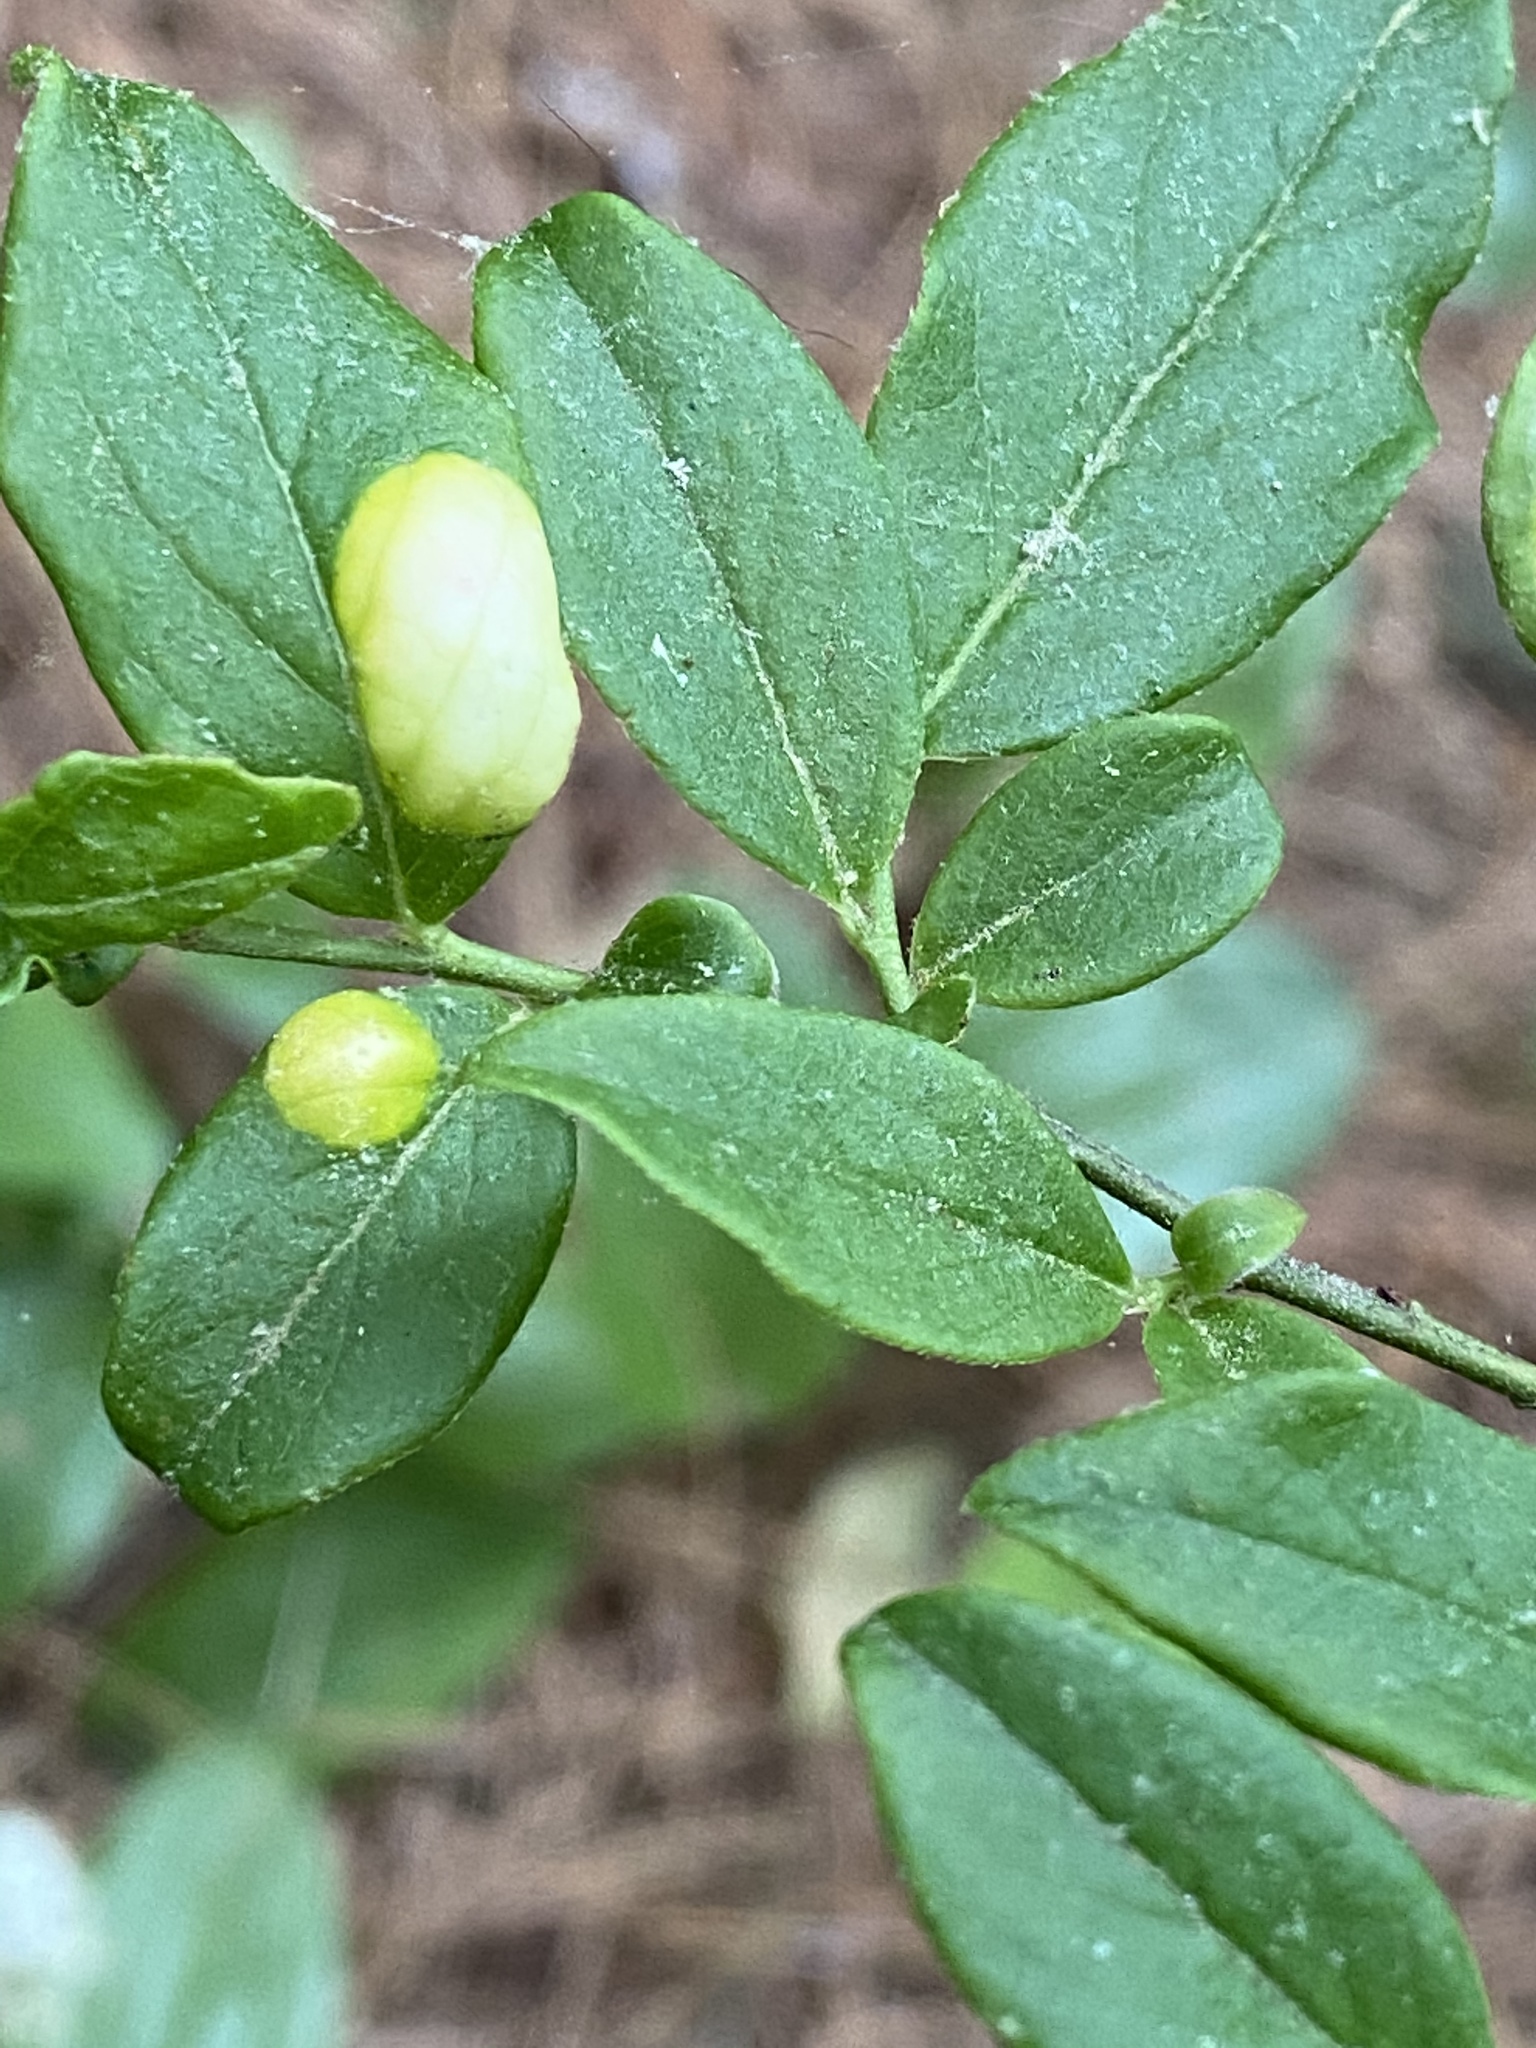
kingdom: Fungi
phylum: Basidiomycota
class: Exobasidiomycetes
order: Exobasidiales
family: Exobasidiaceae
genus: Exobasidium
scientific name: Exobasidium vaccinii
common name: Cowberry redleaf
